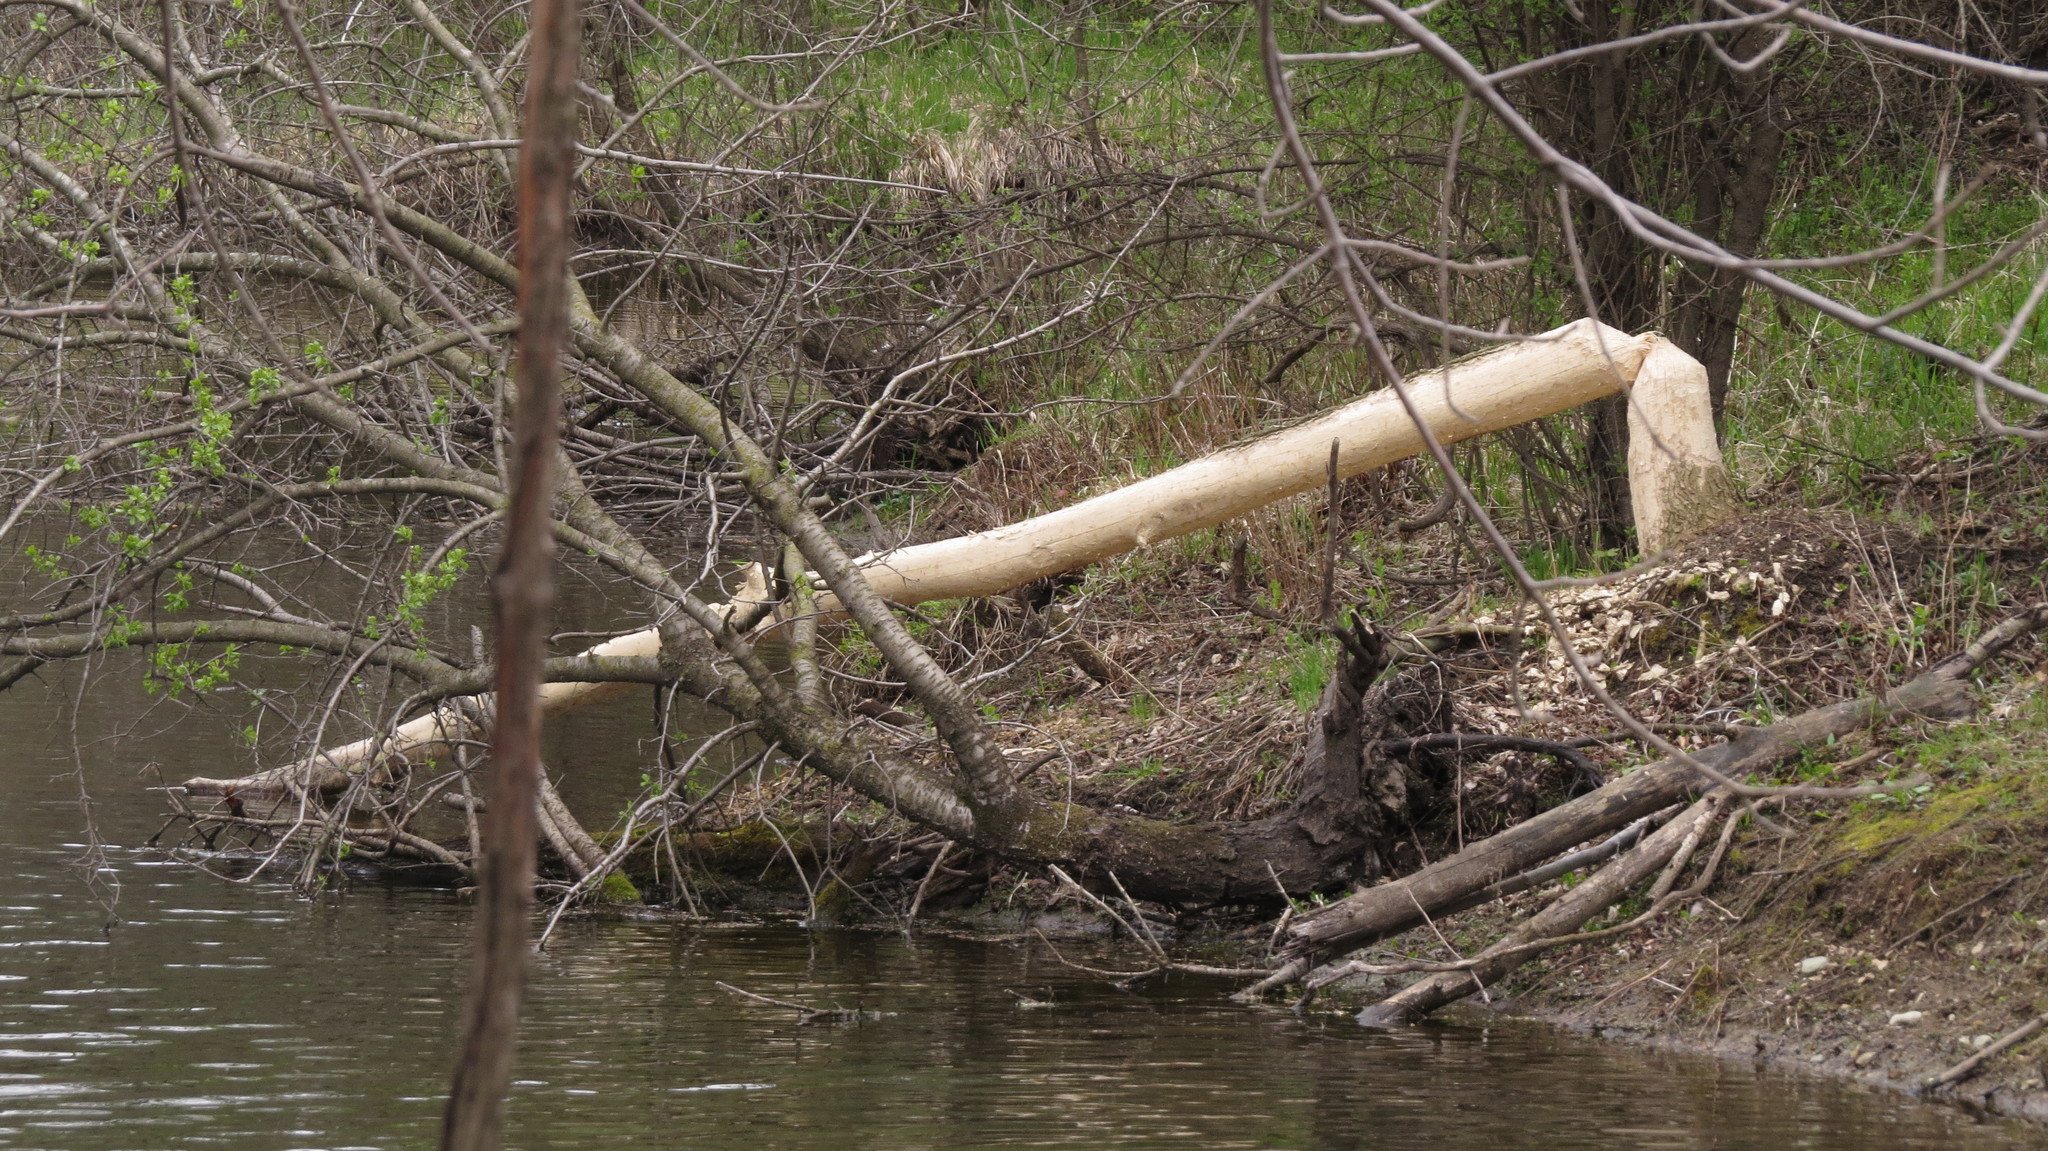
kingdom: Animalia
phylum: Chordata
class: Mammalia
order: Rodentia
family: Castoridae
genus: Castor
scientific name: Castor canadensis
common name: American beaver
